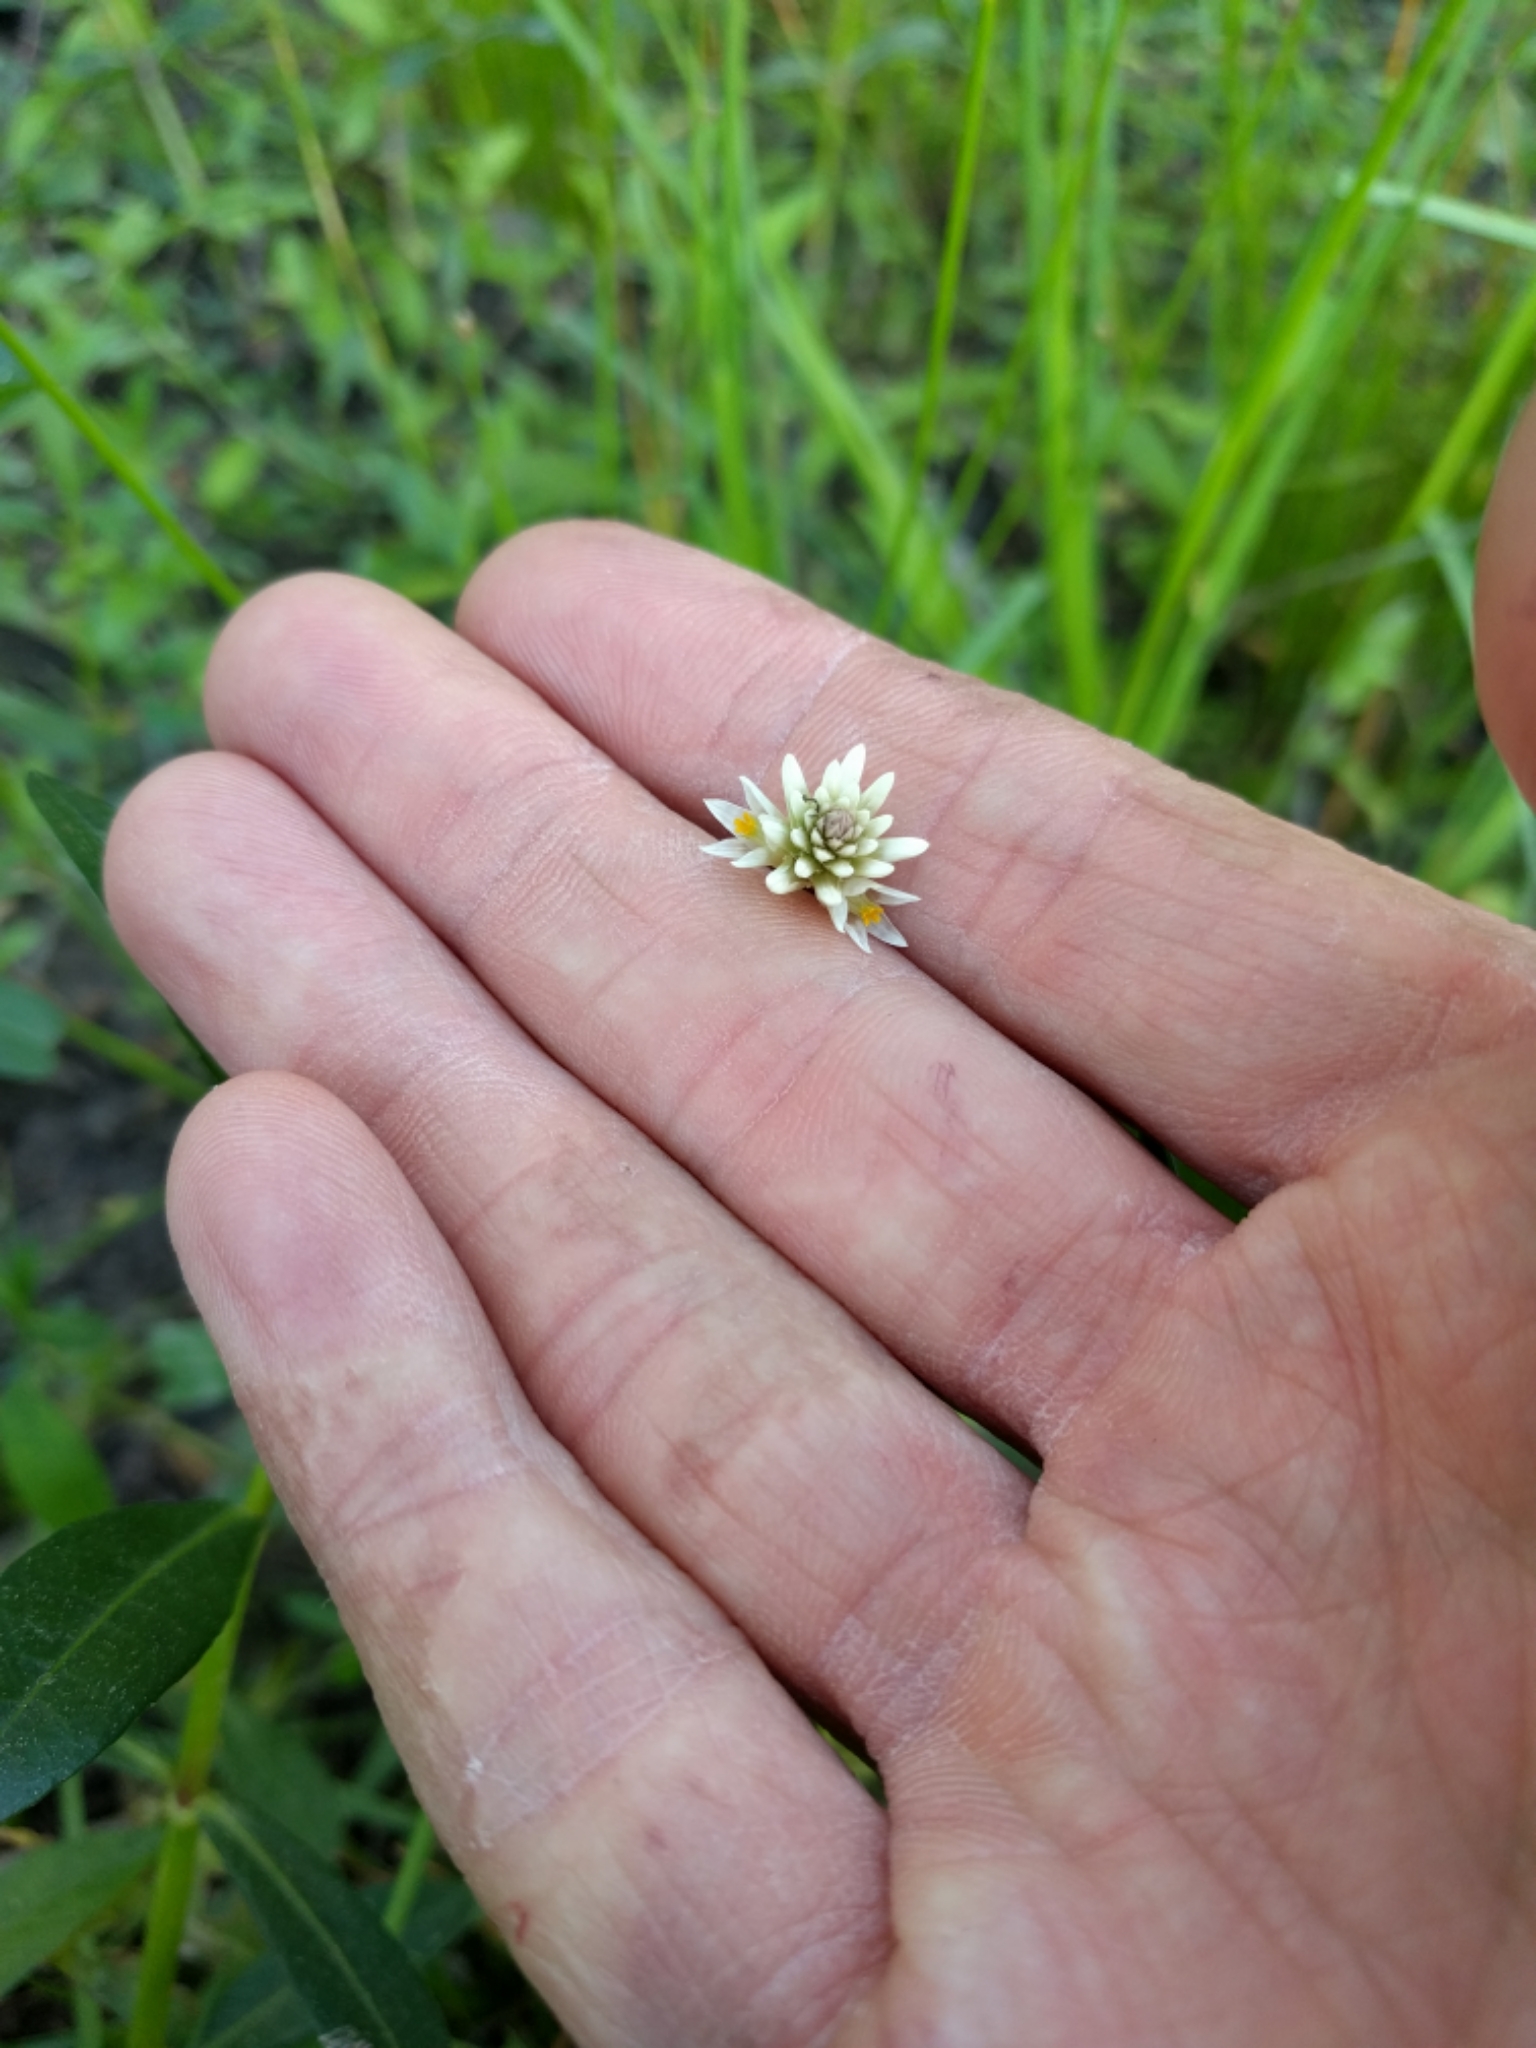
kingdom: Plantae
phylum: Tracheophyta
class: Magnoliopsida
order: Caryophyllales
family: Amaranthaceae
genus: Alternanthera
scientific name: Alternanthera philoxeroides
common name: Alligatorweed
